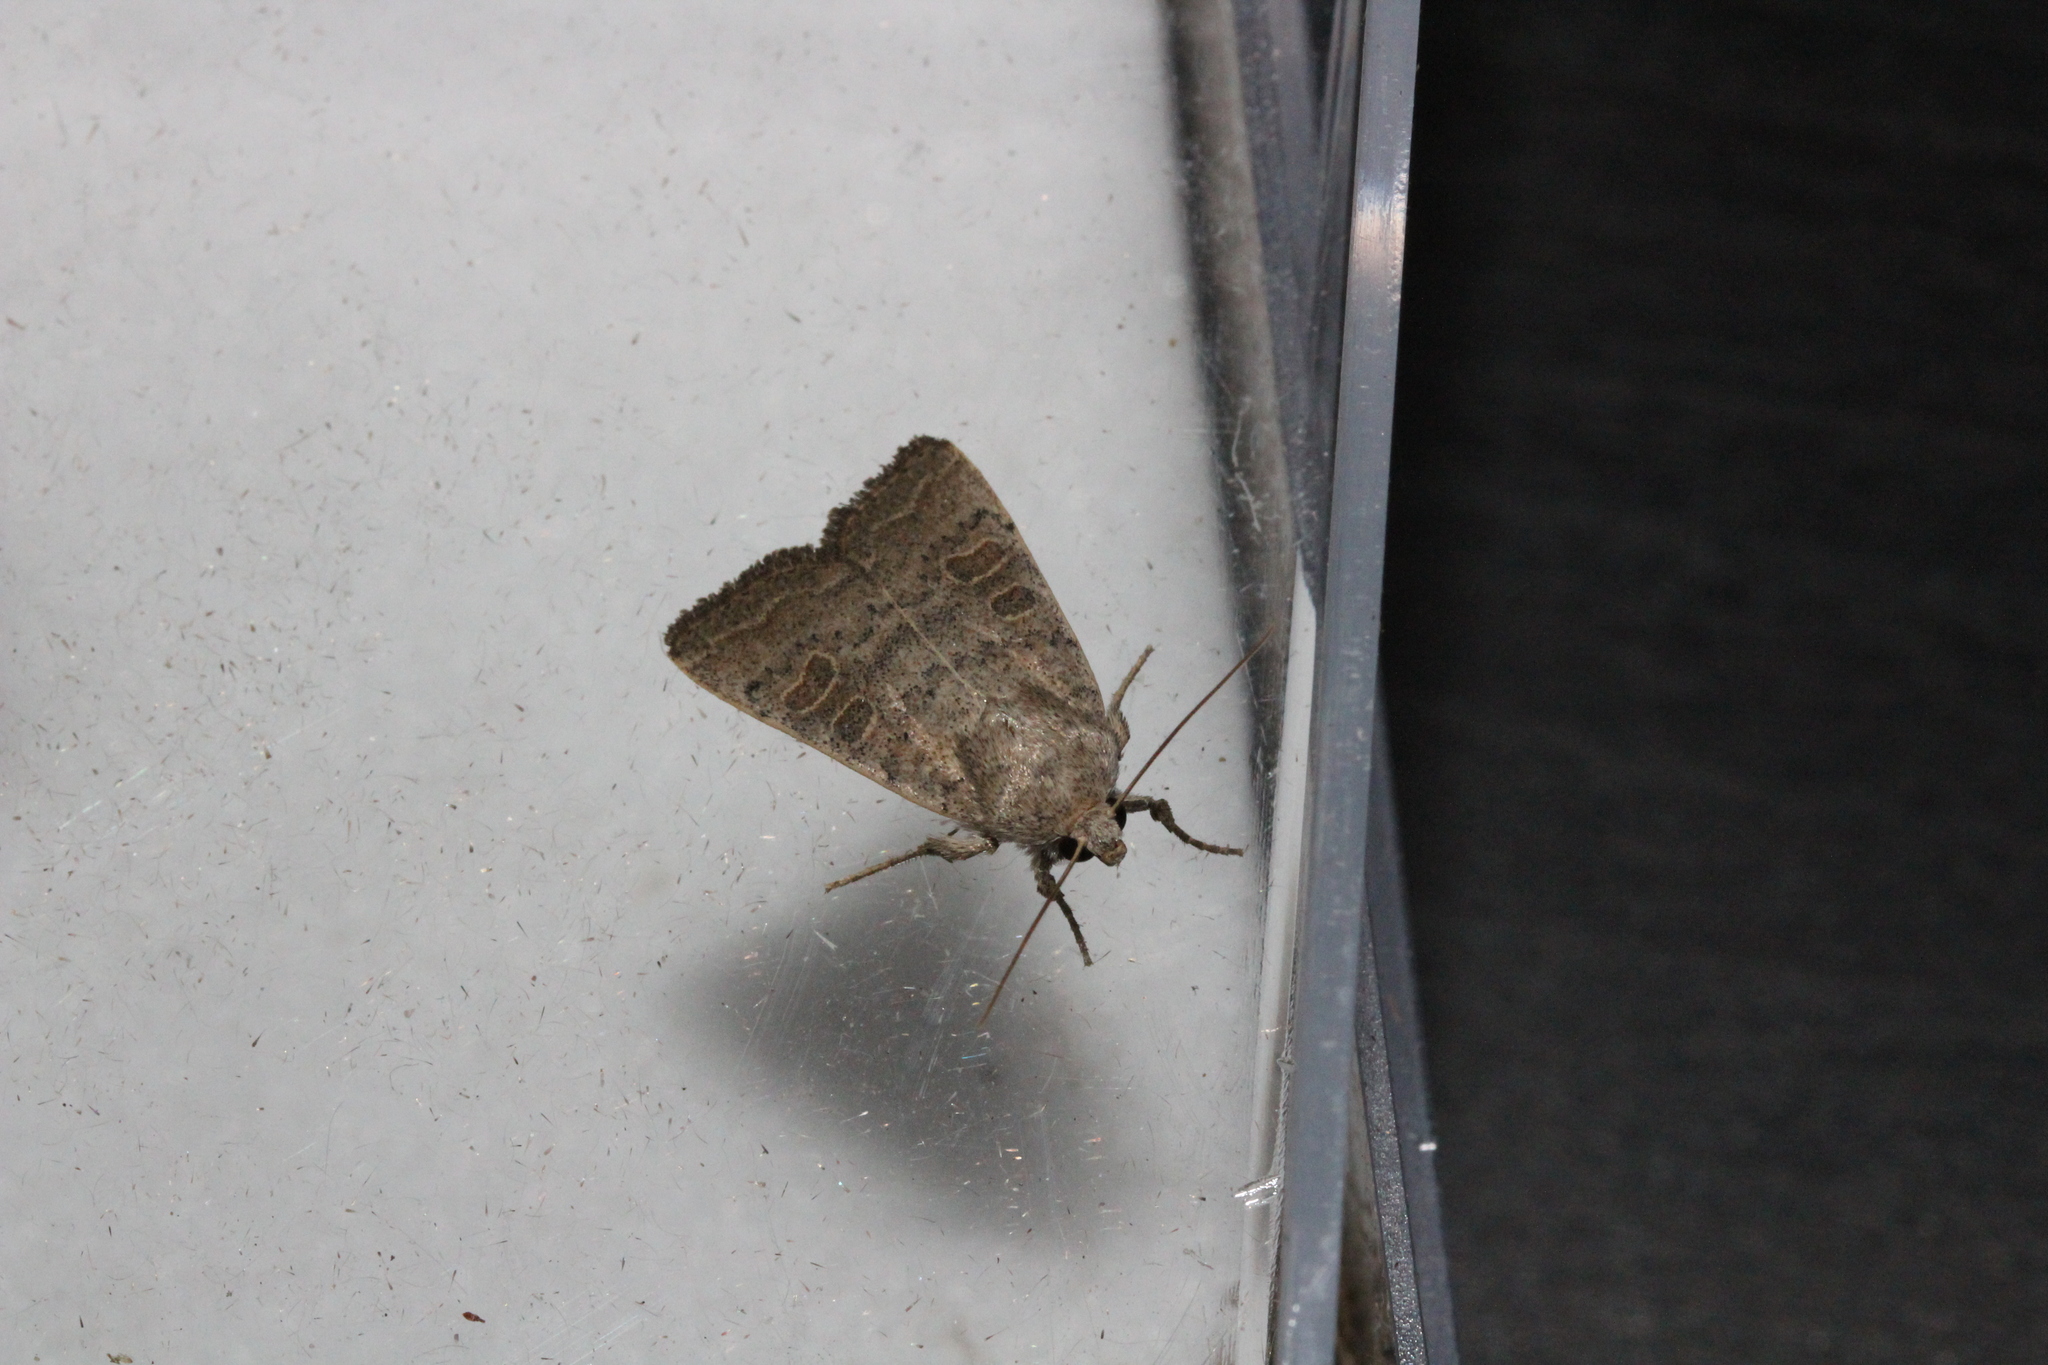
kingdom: Animalia
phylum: Arthropoda
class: Insecta
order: Lepidoptera
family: Noctuidae
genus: Hoplodrina
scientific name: Hoplodrina ambigua
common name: Vine's rustic
